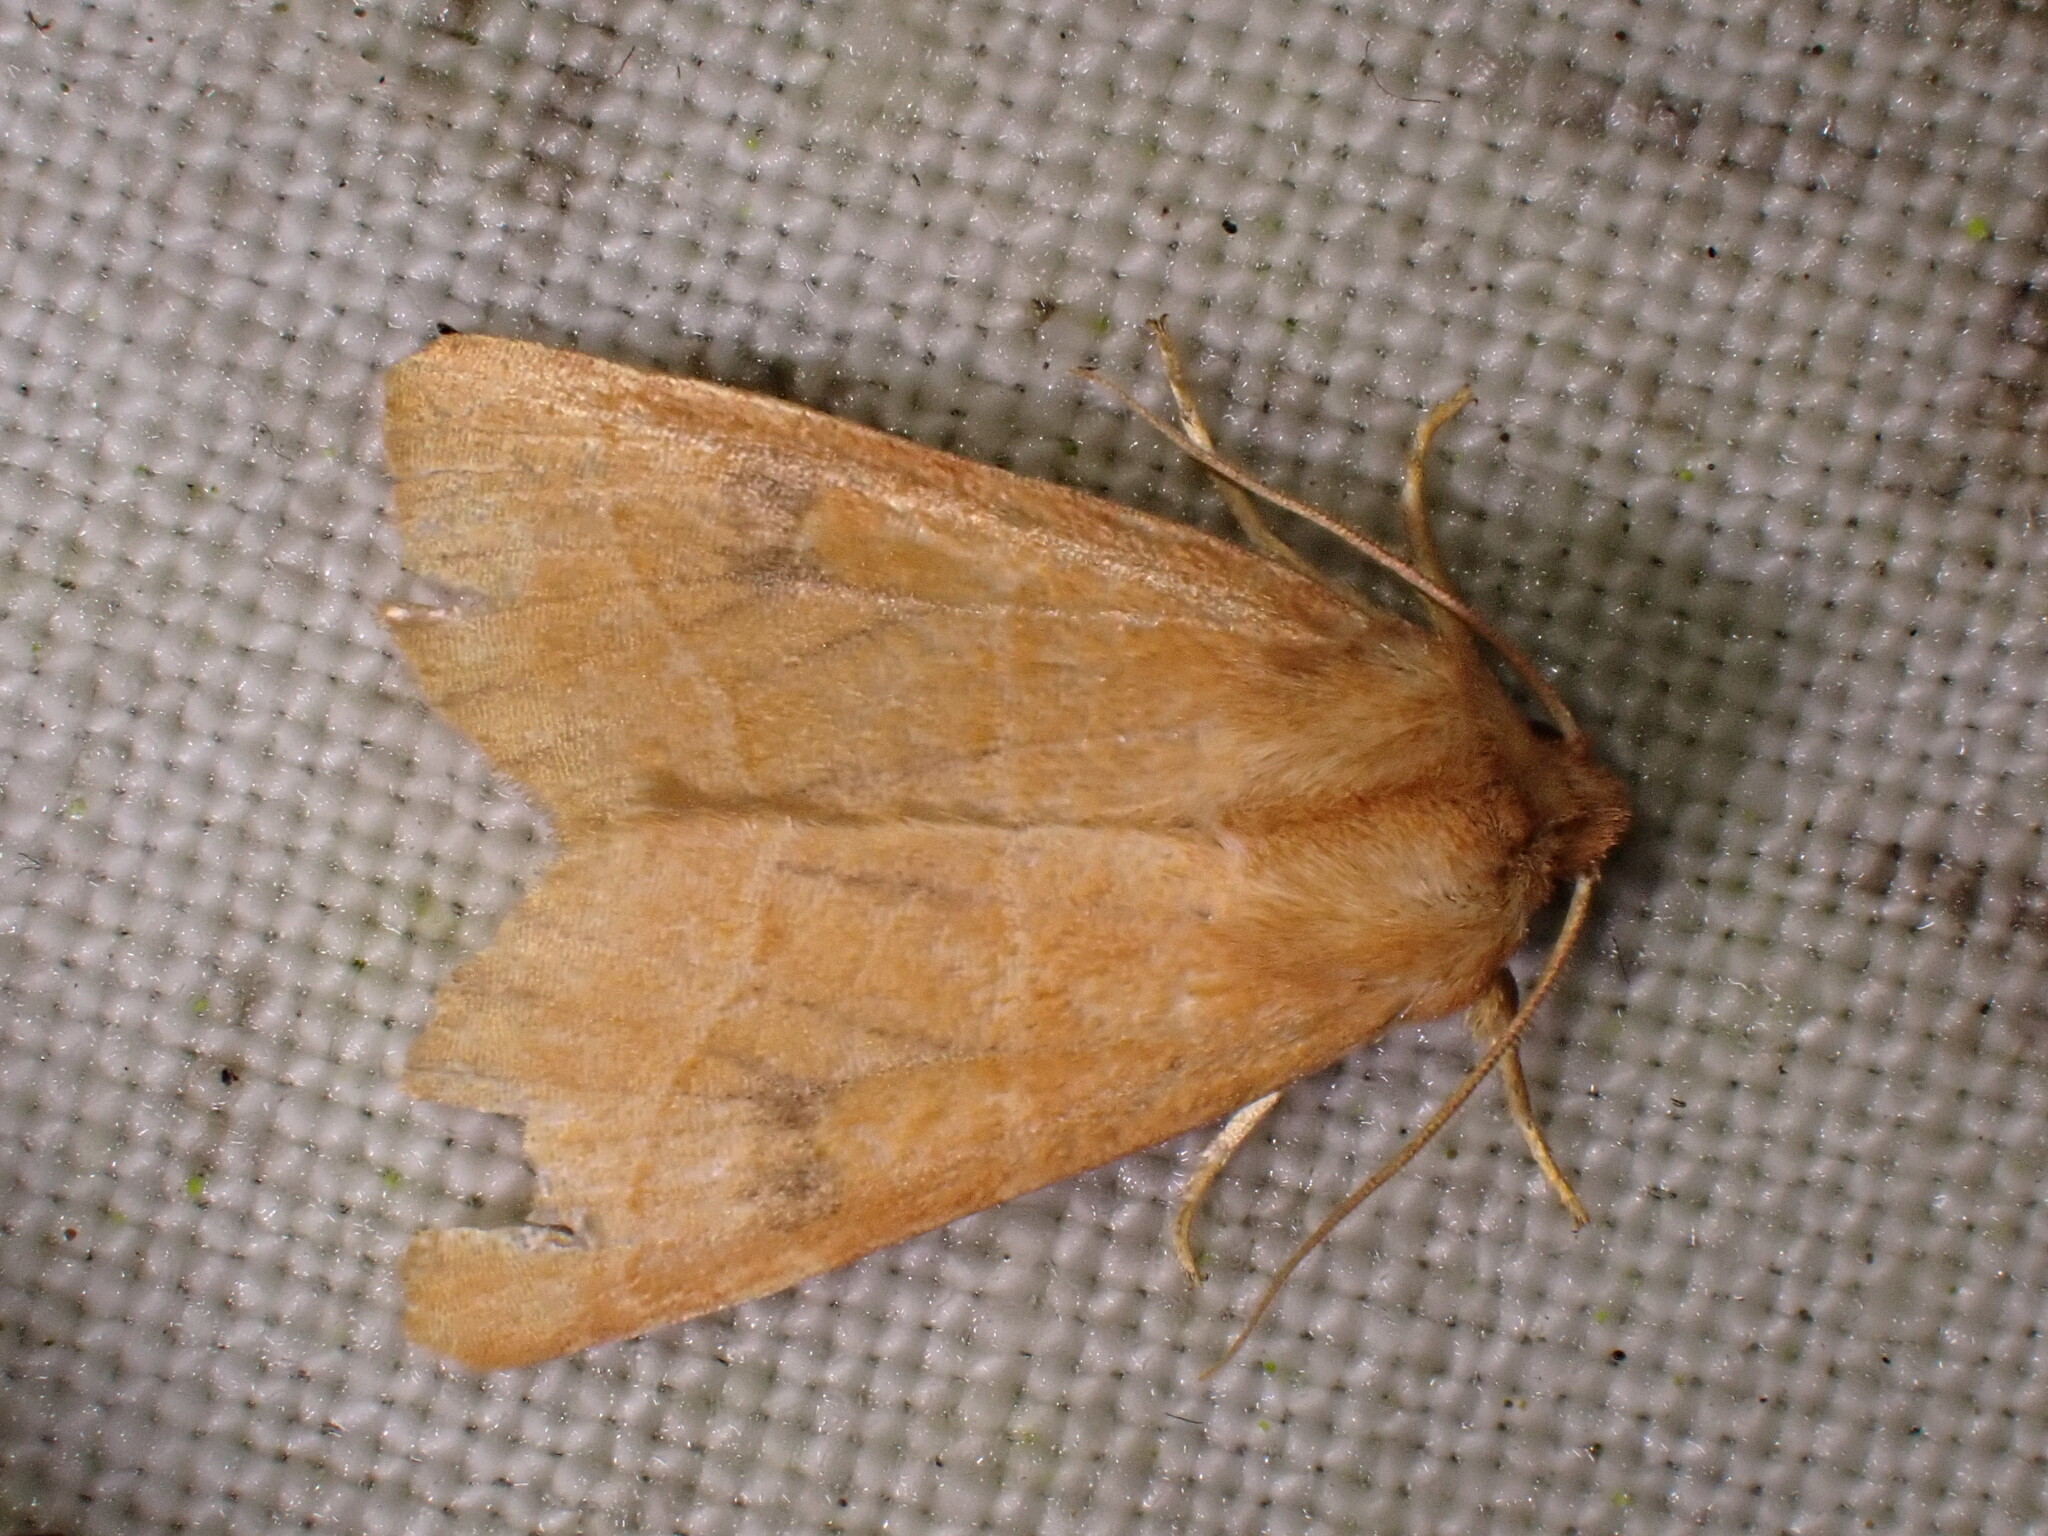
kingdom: Animalia
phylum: Arthropoda
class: Insecta
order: Lepidoptera
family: Noctuidae
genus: Atethmia
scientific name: Atethmia centrago
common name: Centre-barred sallow
